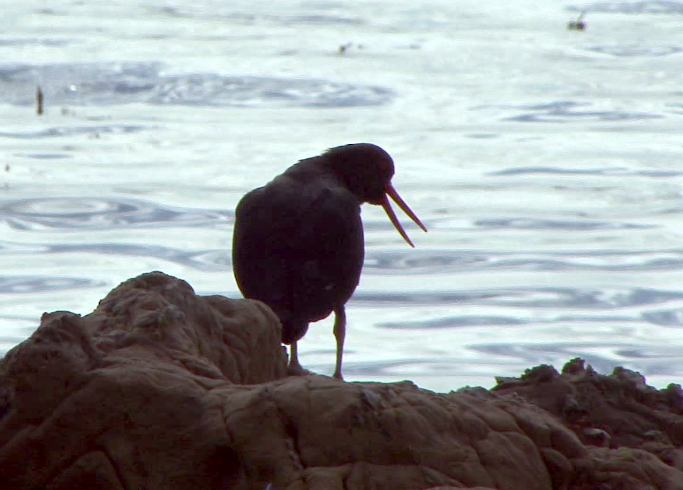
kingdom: Animalia
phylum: Chordata
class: Aves
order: Charadriiformes
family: Haematopodidae
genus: Haematopus
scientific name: Haematopus unicolor
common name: Variable oystercatcher
